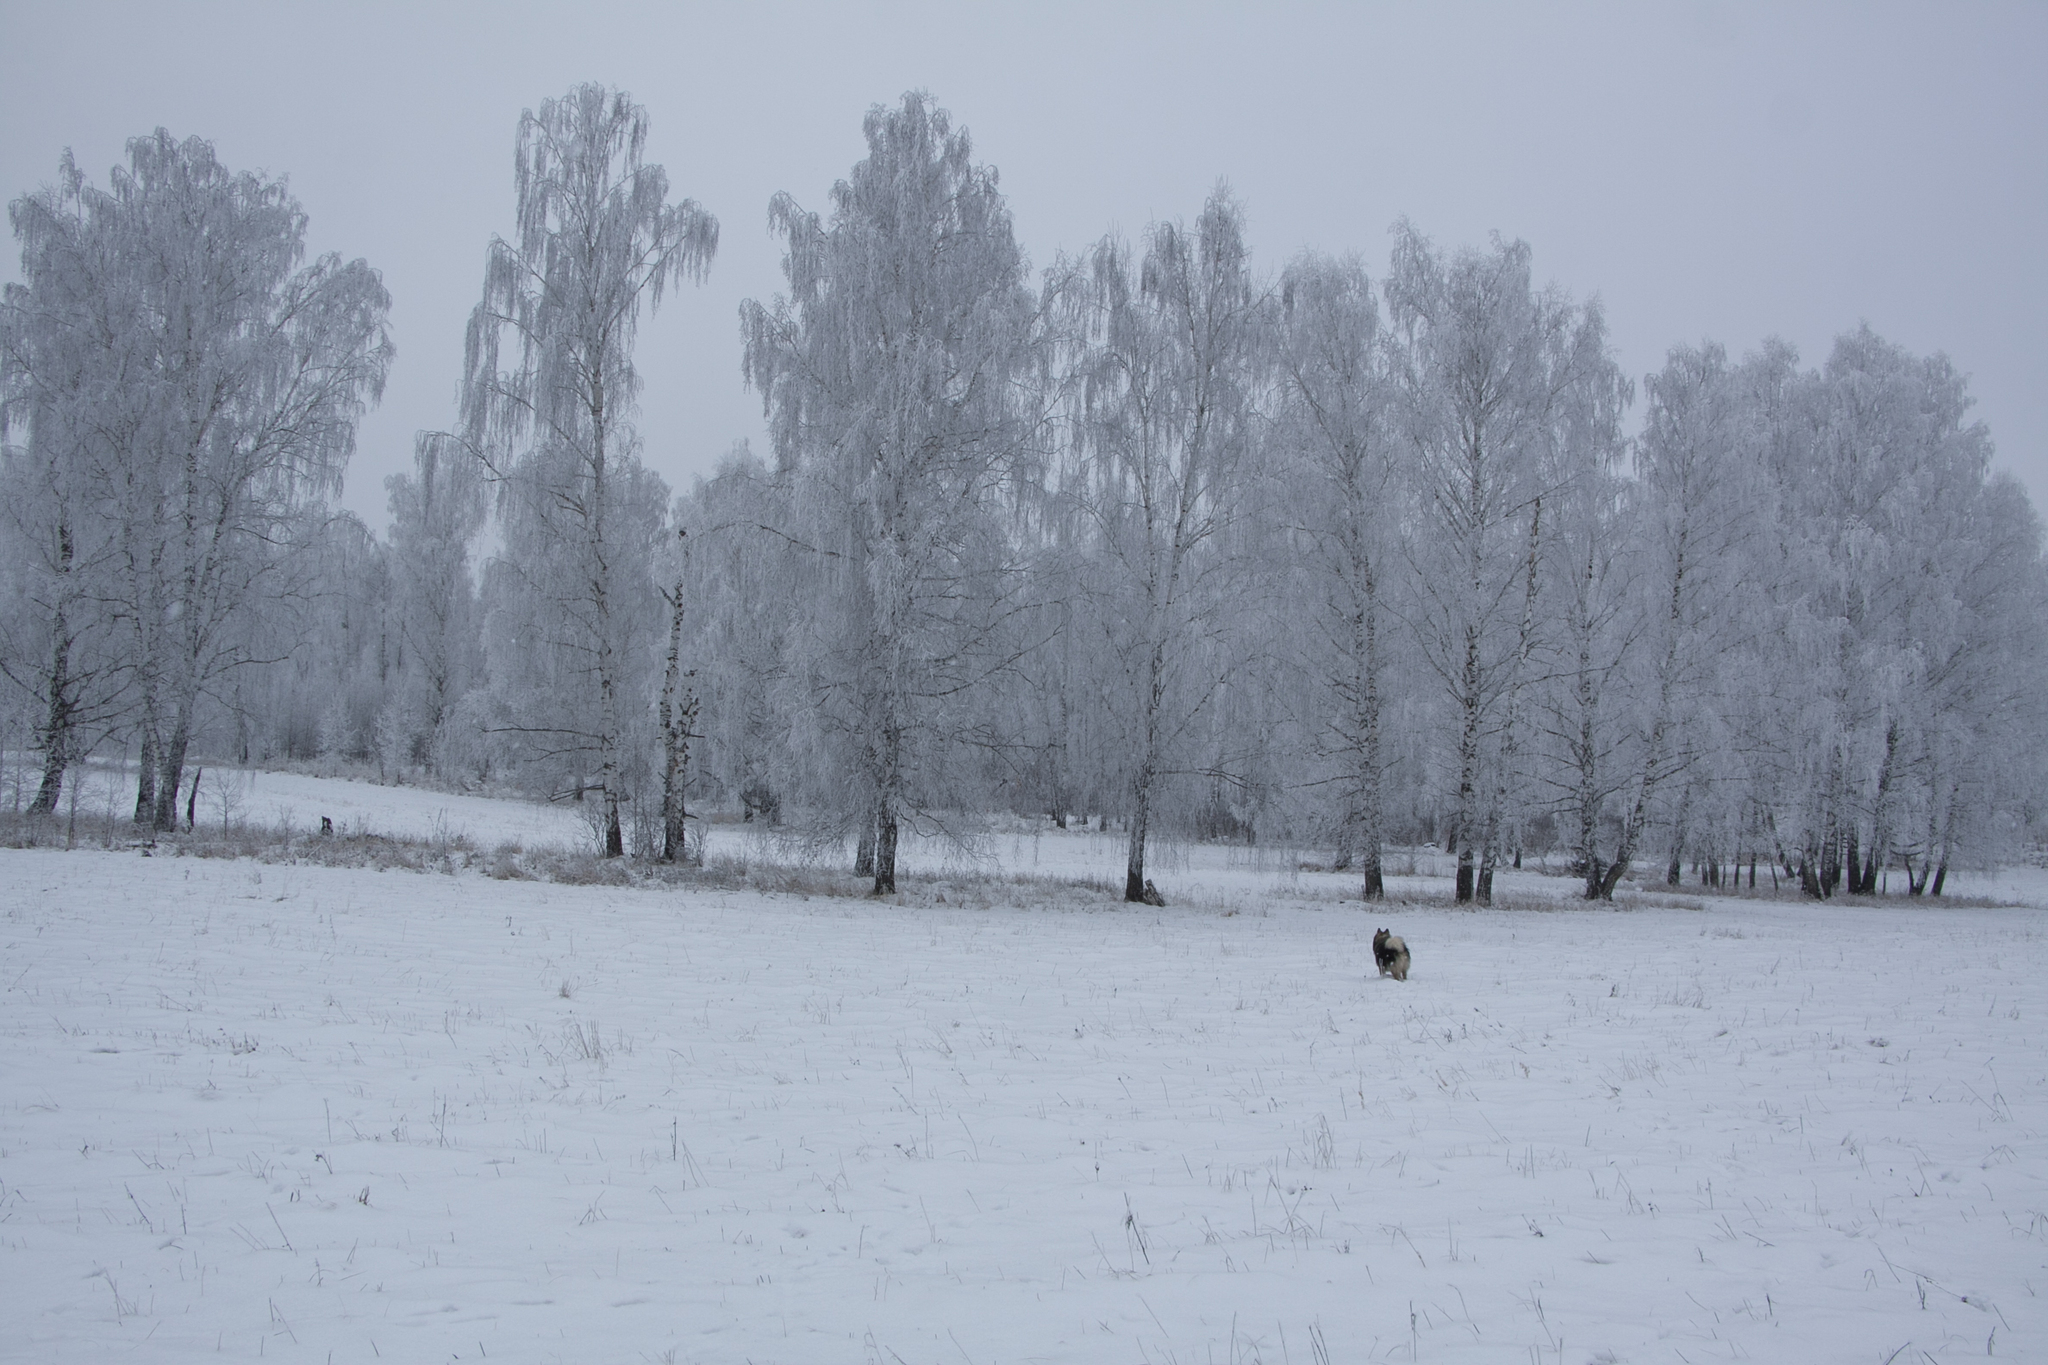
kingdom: Plantae
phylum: Tracheophyta
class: Magnoliopsida
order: Fagales
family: Betulaceae
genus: Betula
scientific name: Betula pendula
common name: Silver birch
